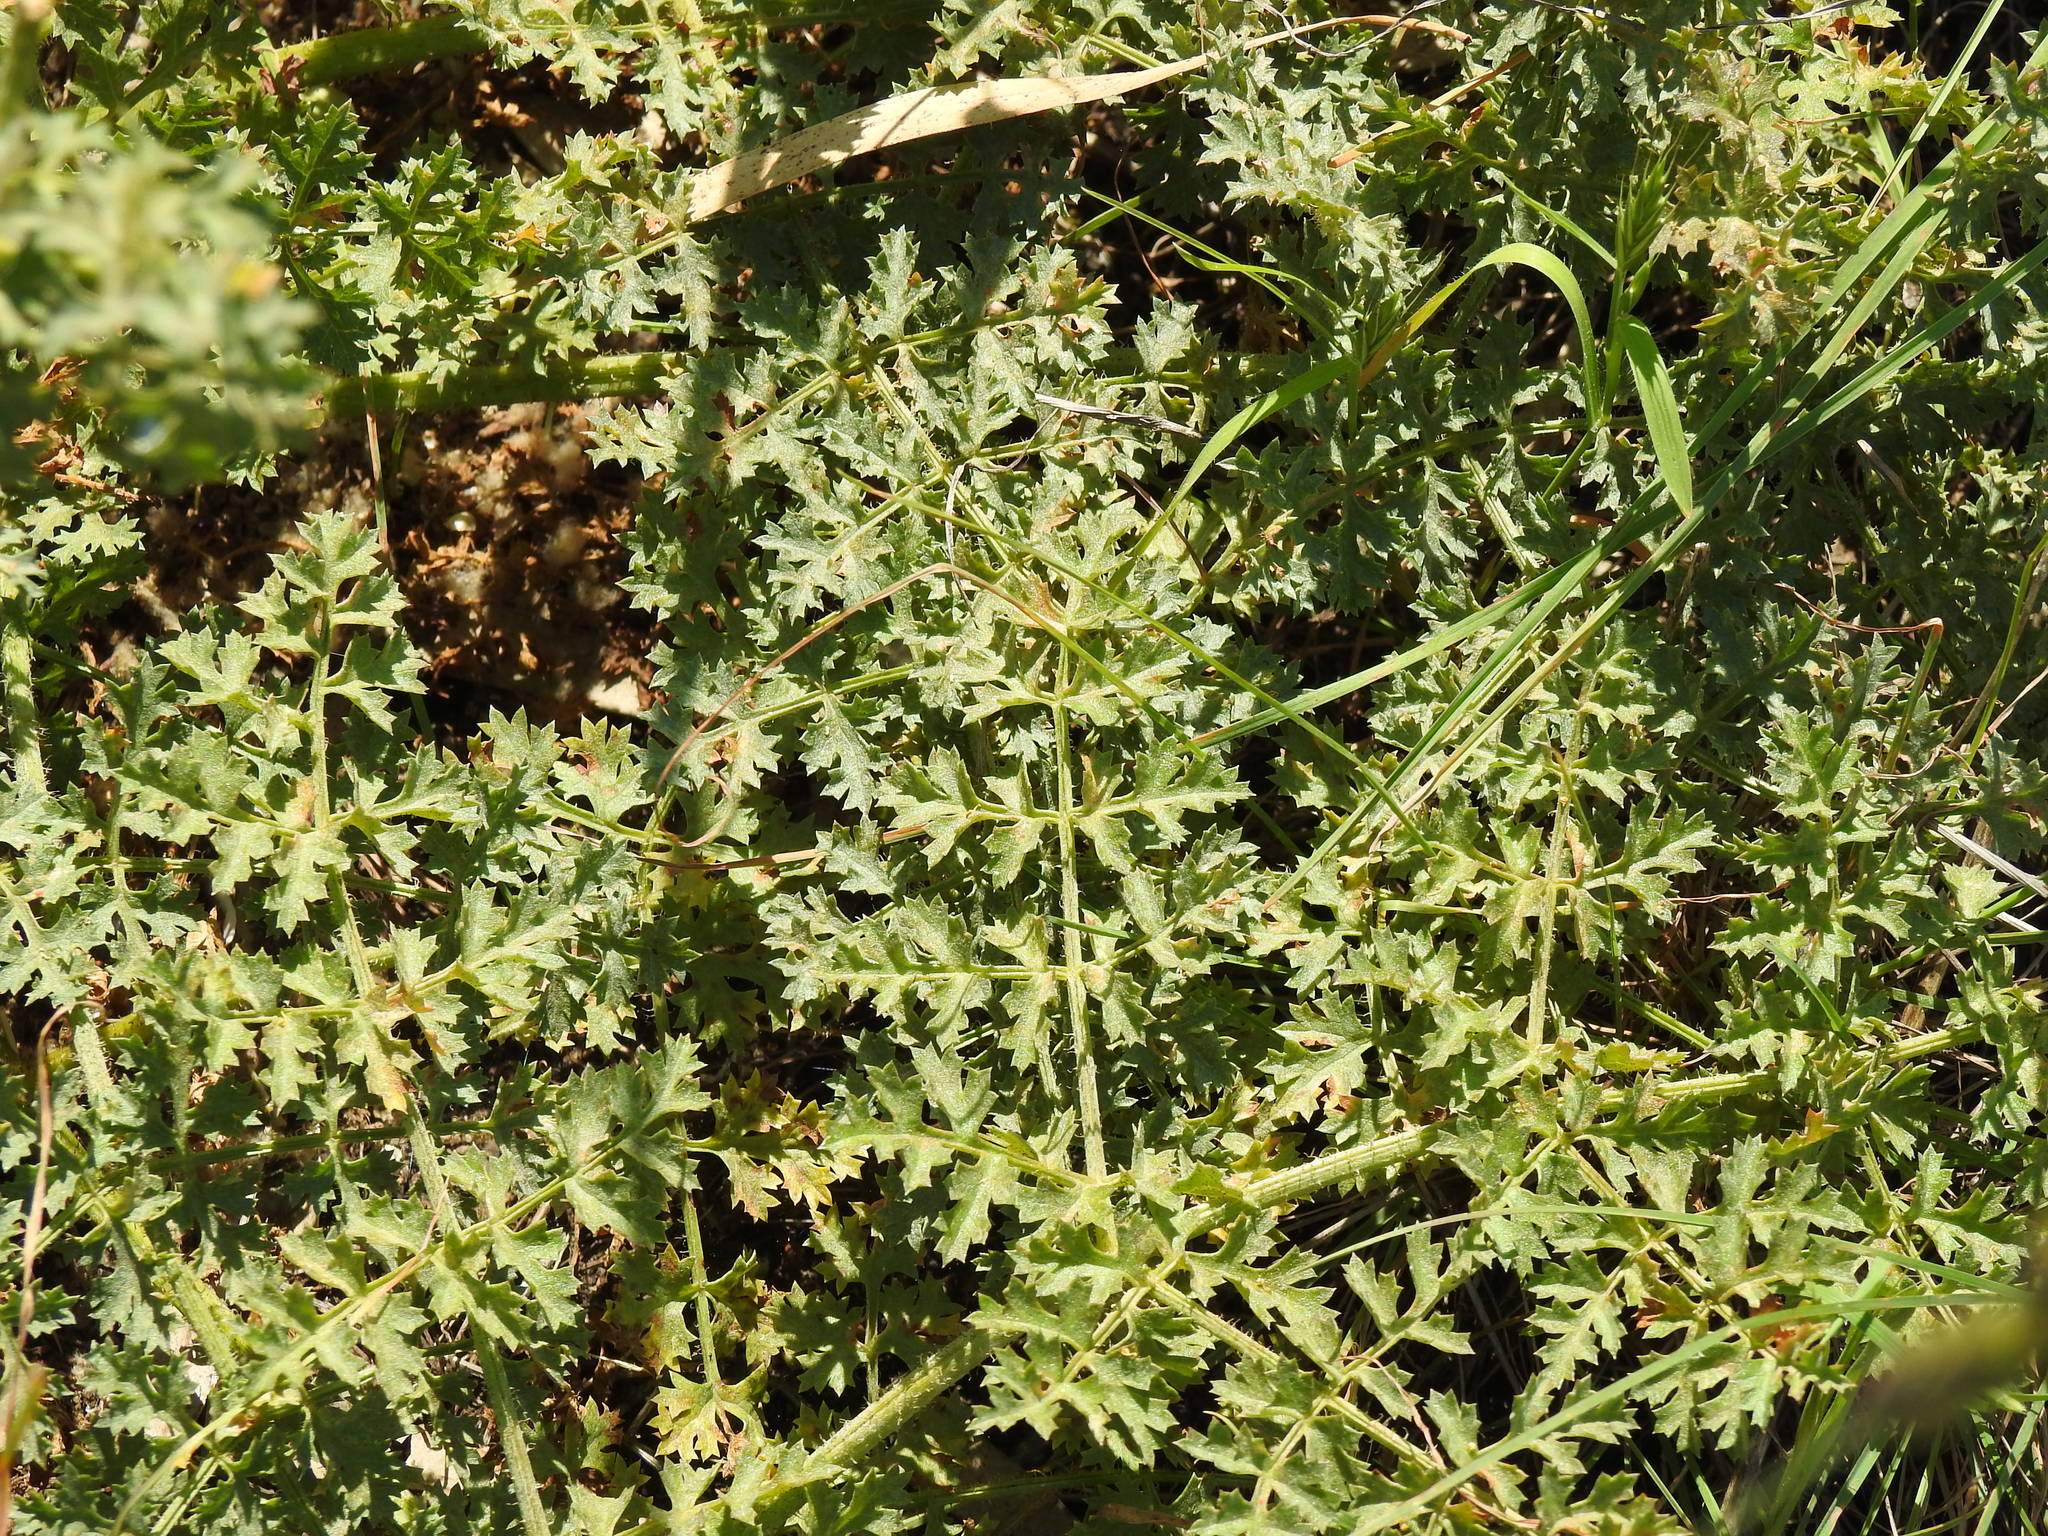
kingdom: Plantae
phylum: Tracheophyta
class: Magnoliopsida
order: Apiales
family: Apiaceae
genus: Thapsia
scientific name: Thapsia foetida
